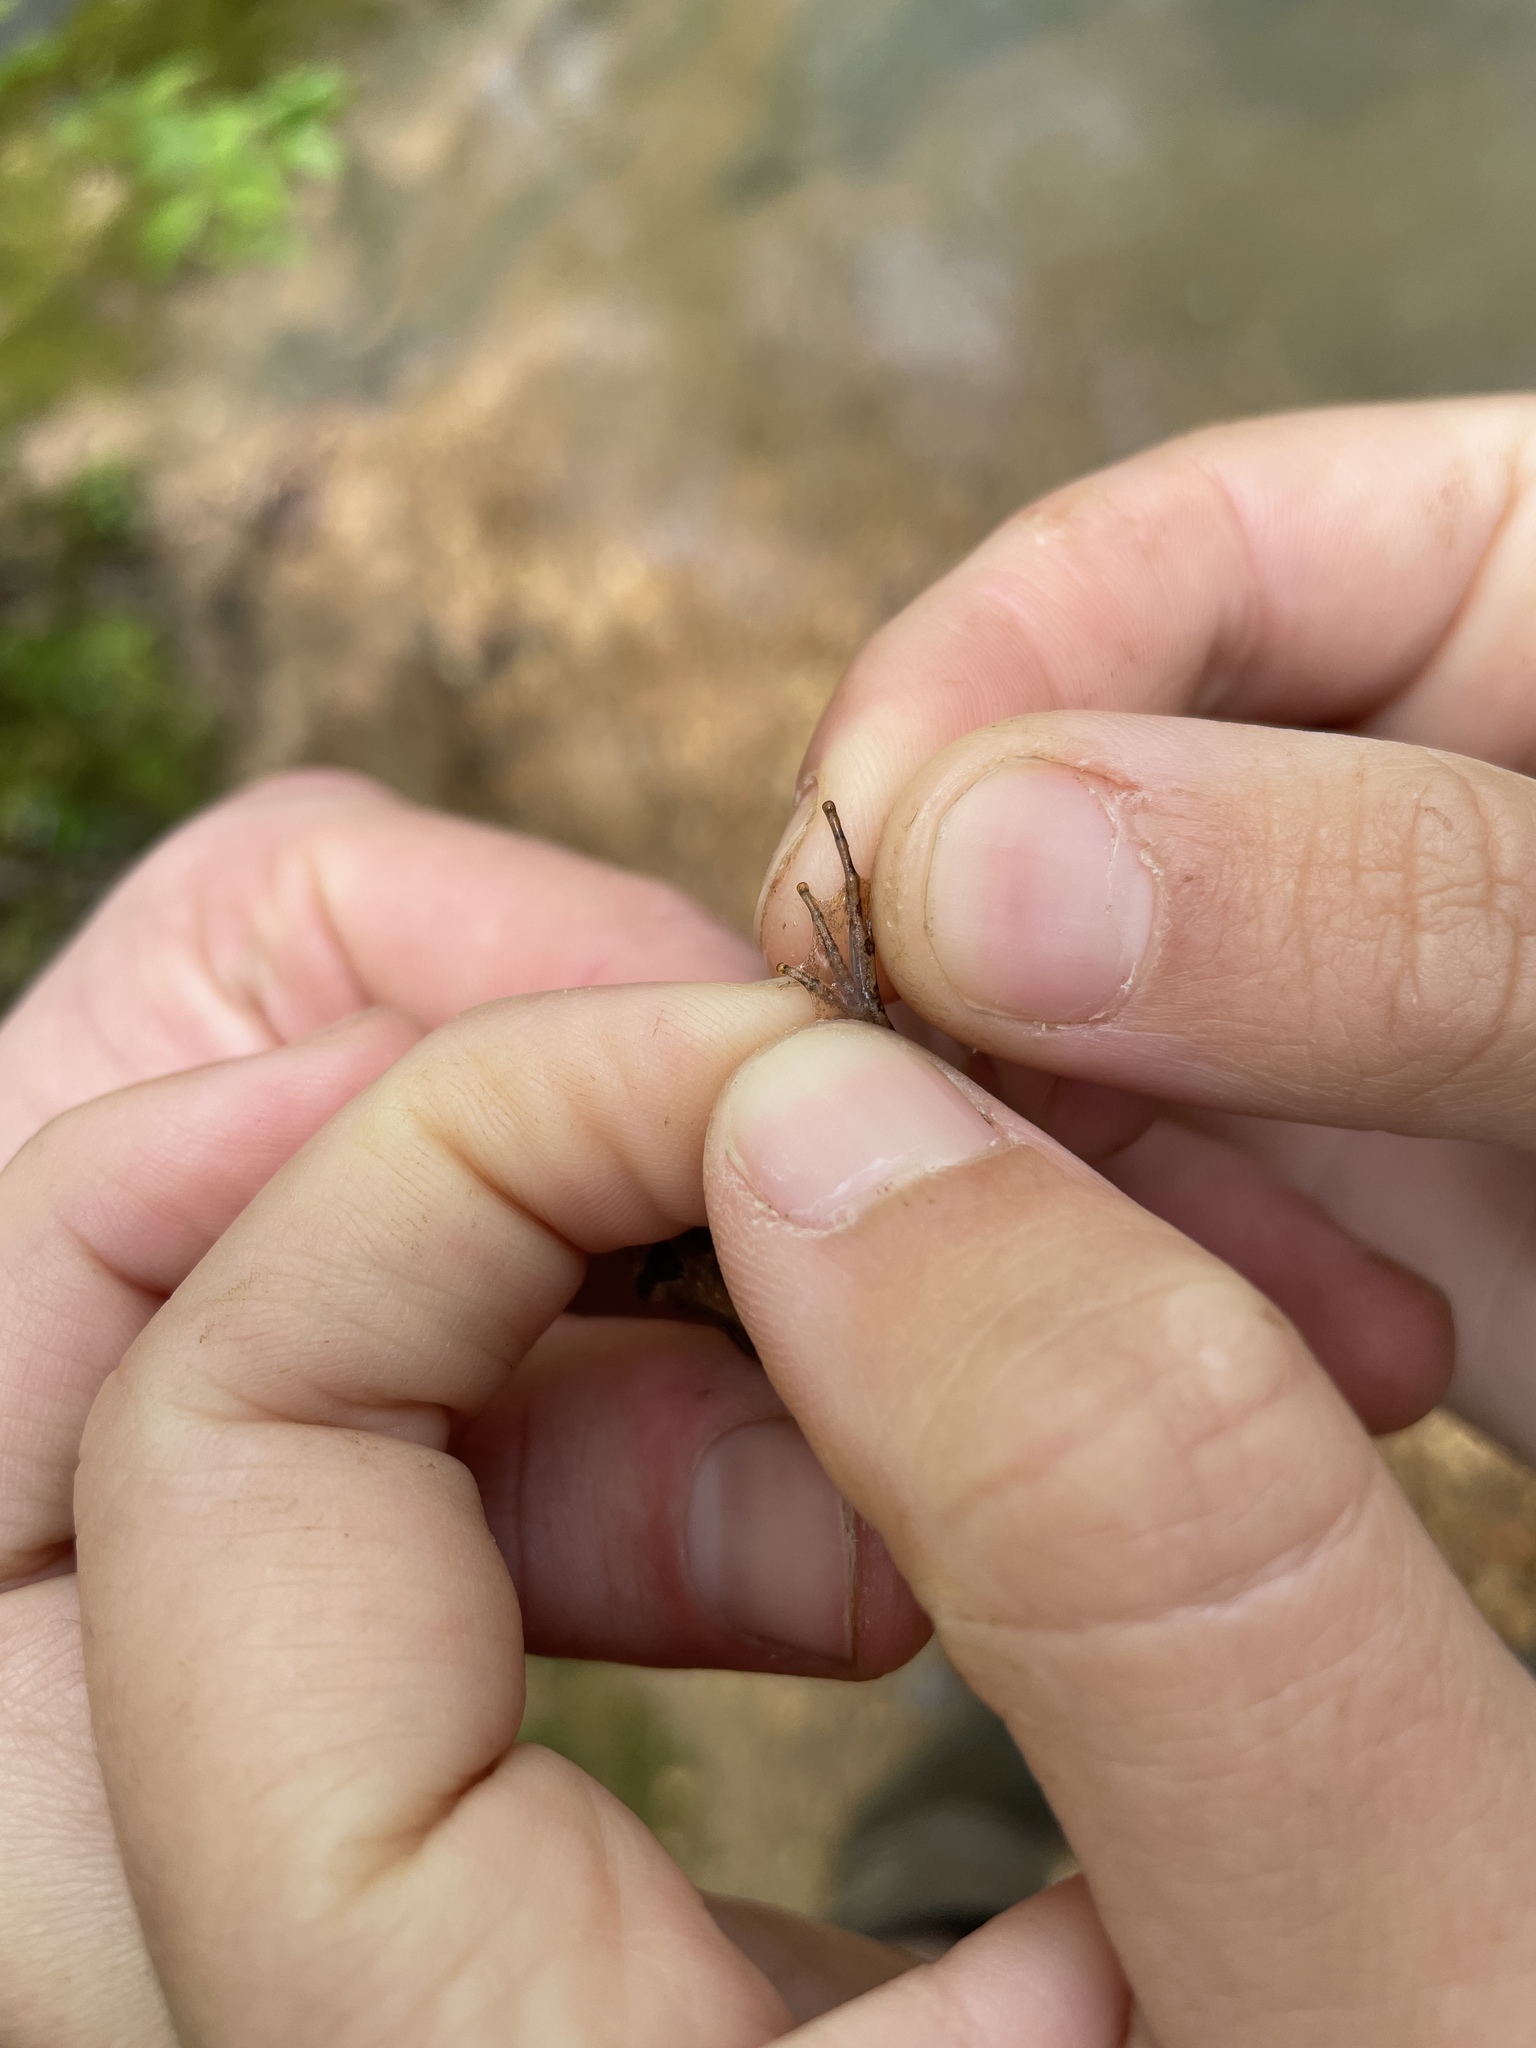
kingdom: Animalia
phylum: Chordata
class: Amphibia
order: Anura
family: Hylidae
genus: Acris
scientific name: Acris gryllus
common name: Southern cricket frog
